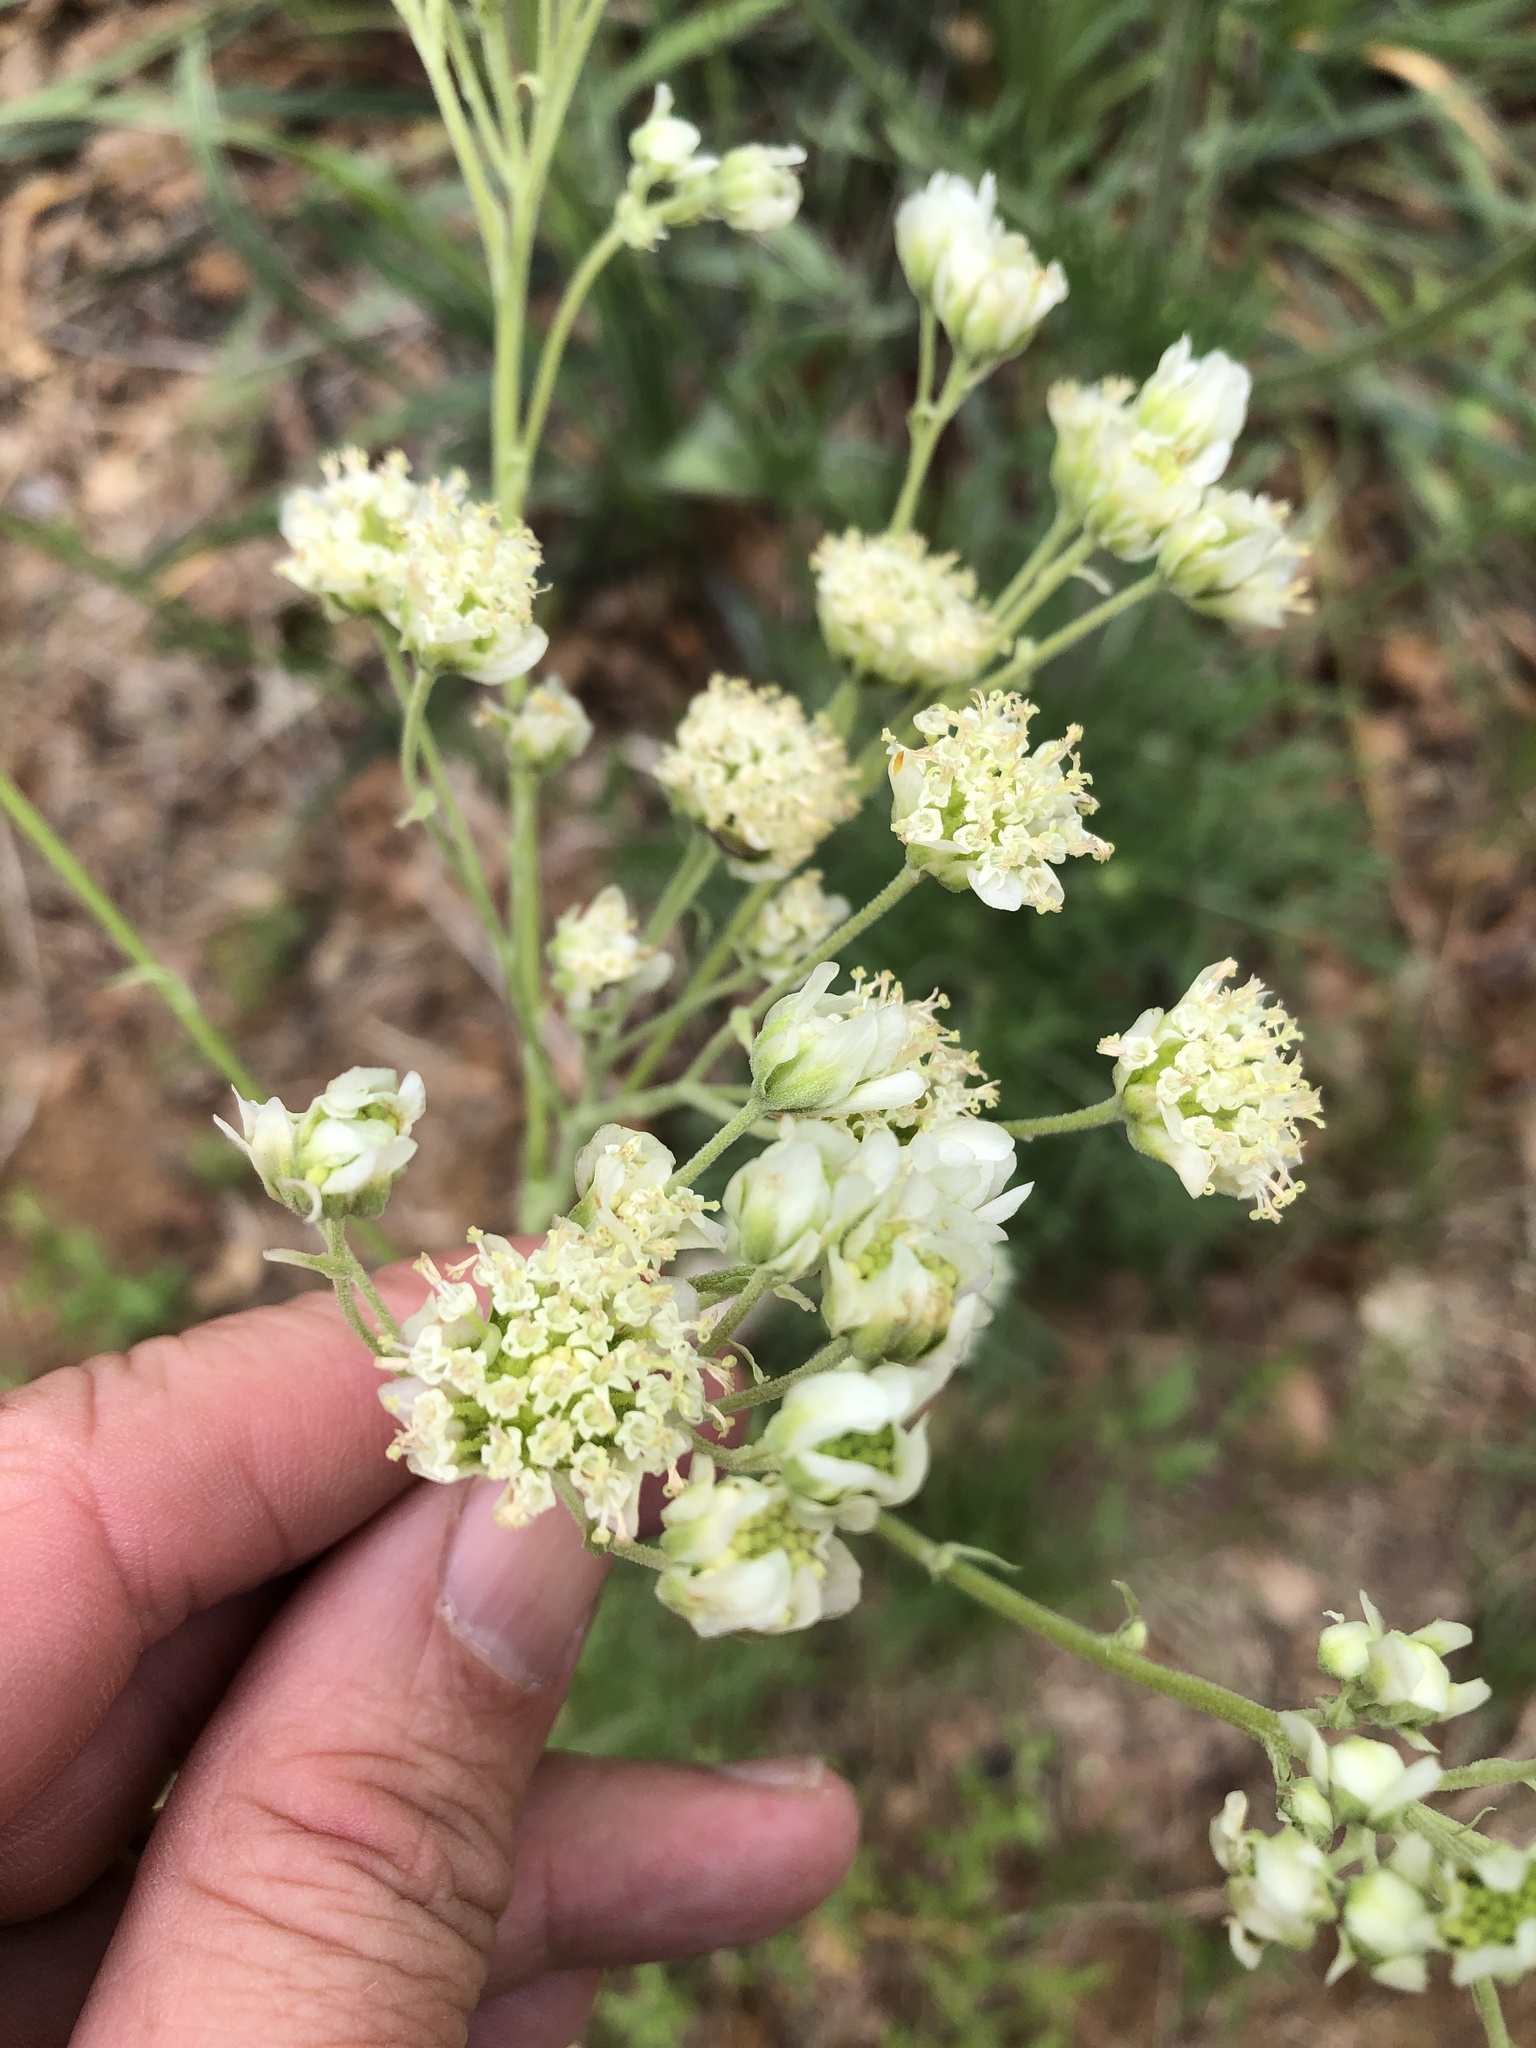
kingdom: Plantae
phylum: Tracheophyta
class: Magnoliopsida
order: Asterales
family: Asteraceae
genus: Hymenopappus
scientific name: Hymenopappus scabiosaeus
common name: Carolina woollywhite
